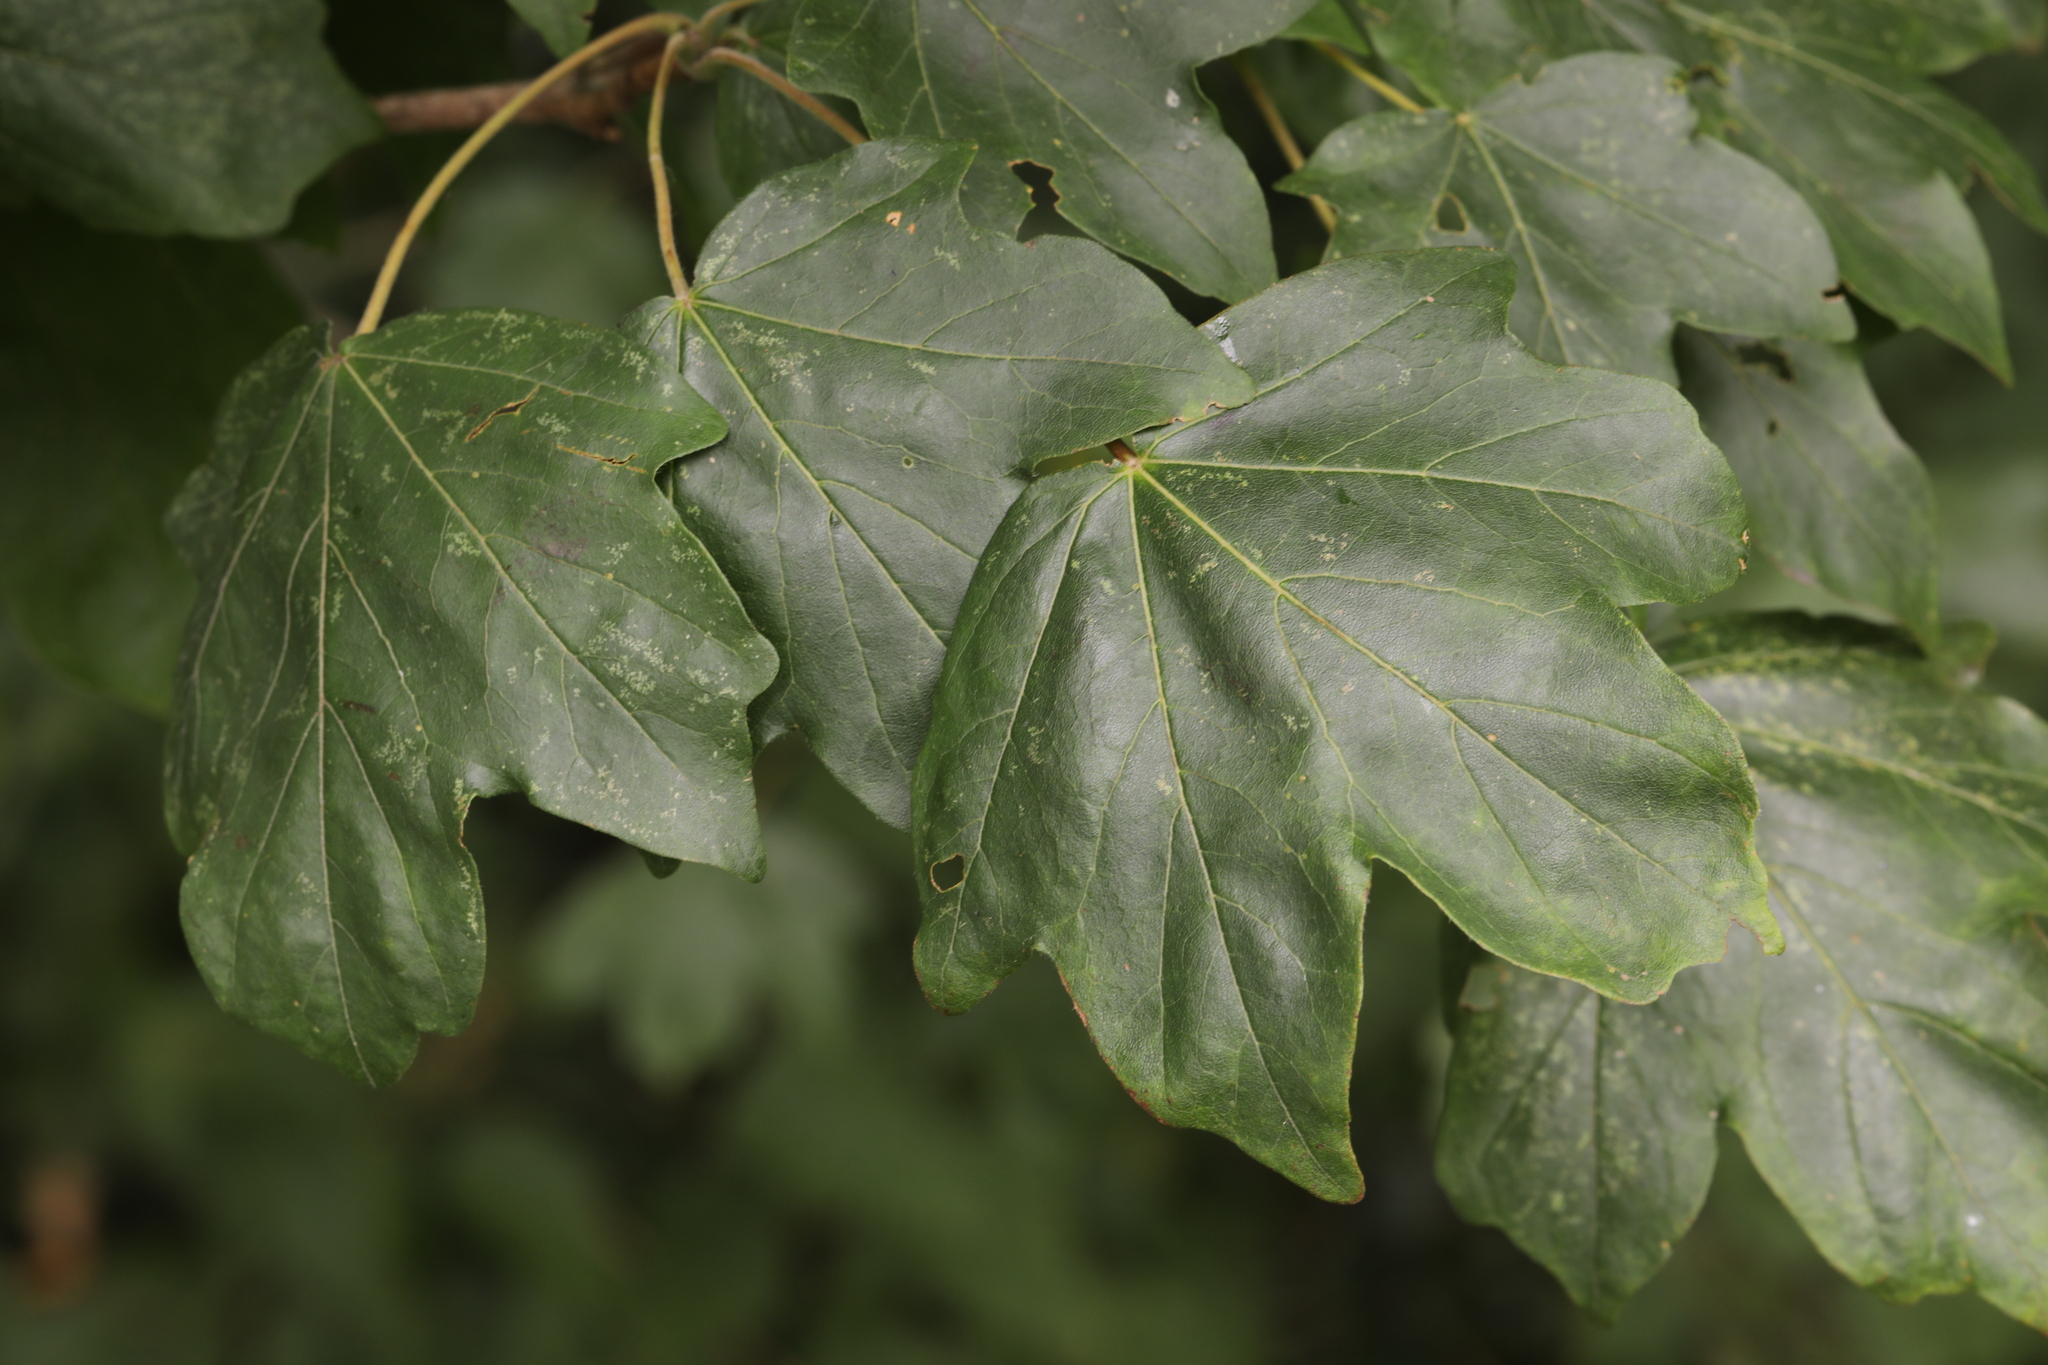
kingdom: Plantae
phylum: Tracheophyta
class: Magnoliopsida
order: Sapindales
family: Sapindaceae
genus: Acer
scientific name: Acer campestre
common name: Field maple
